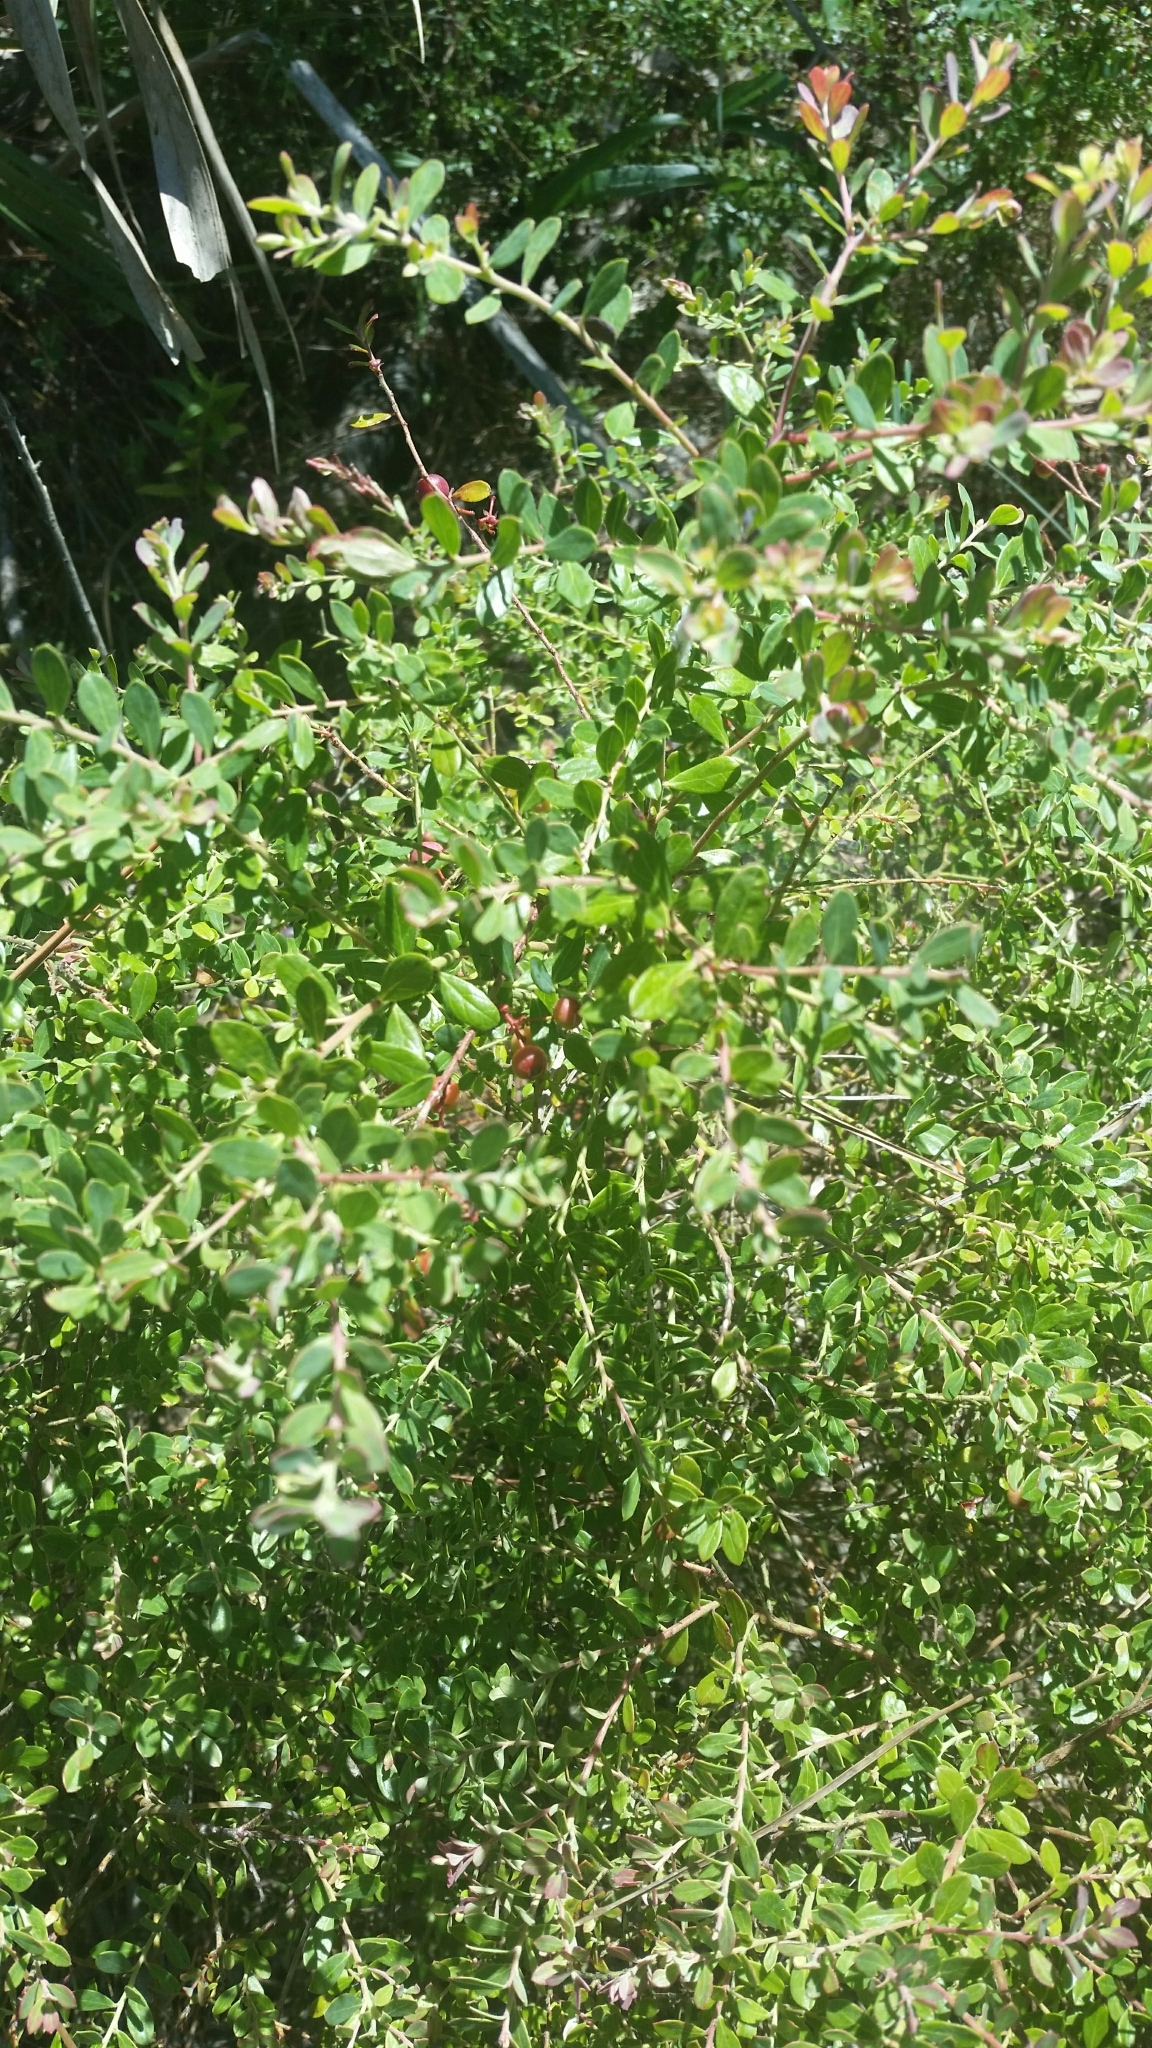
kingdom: Plantae
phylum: Tracheophyta
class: Magnoliopsida
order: Ericales
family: Ericaceae
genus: Vaccinium
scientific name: Vaccinium darrowii
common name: Darrow's blueberry
